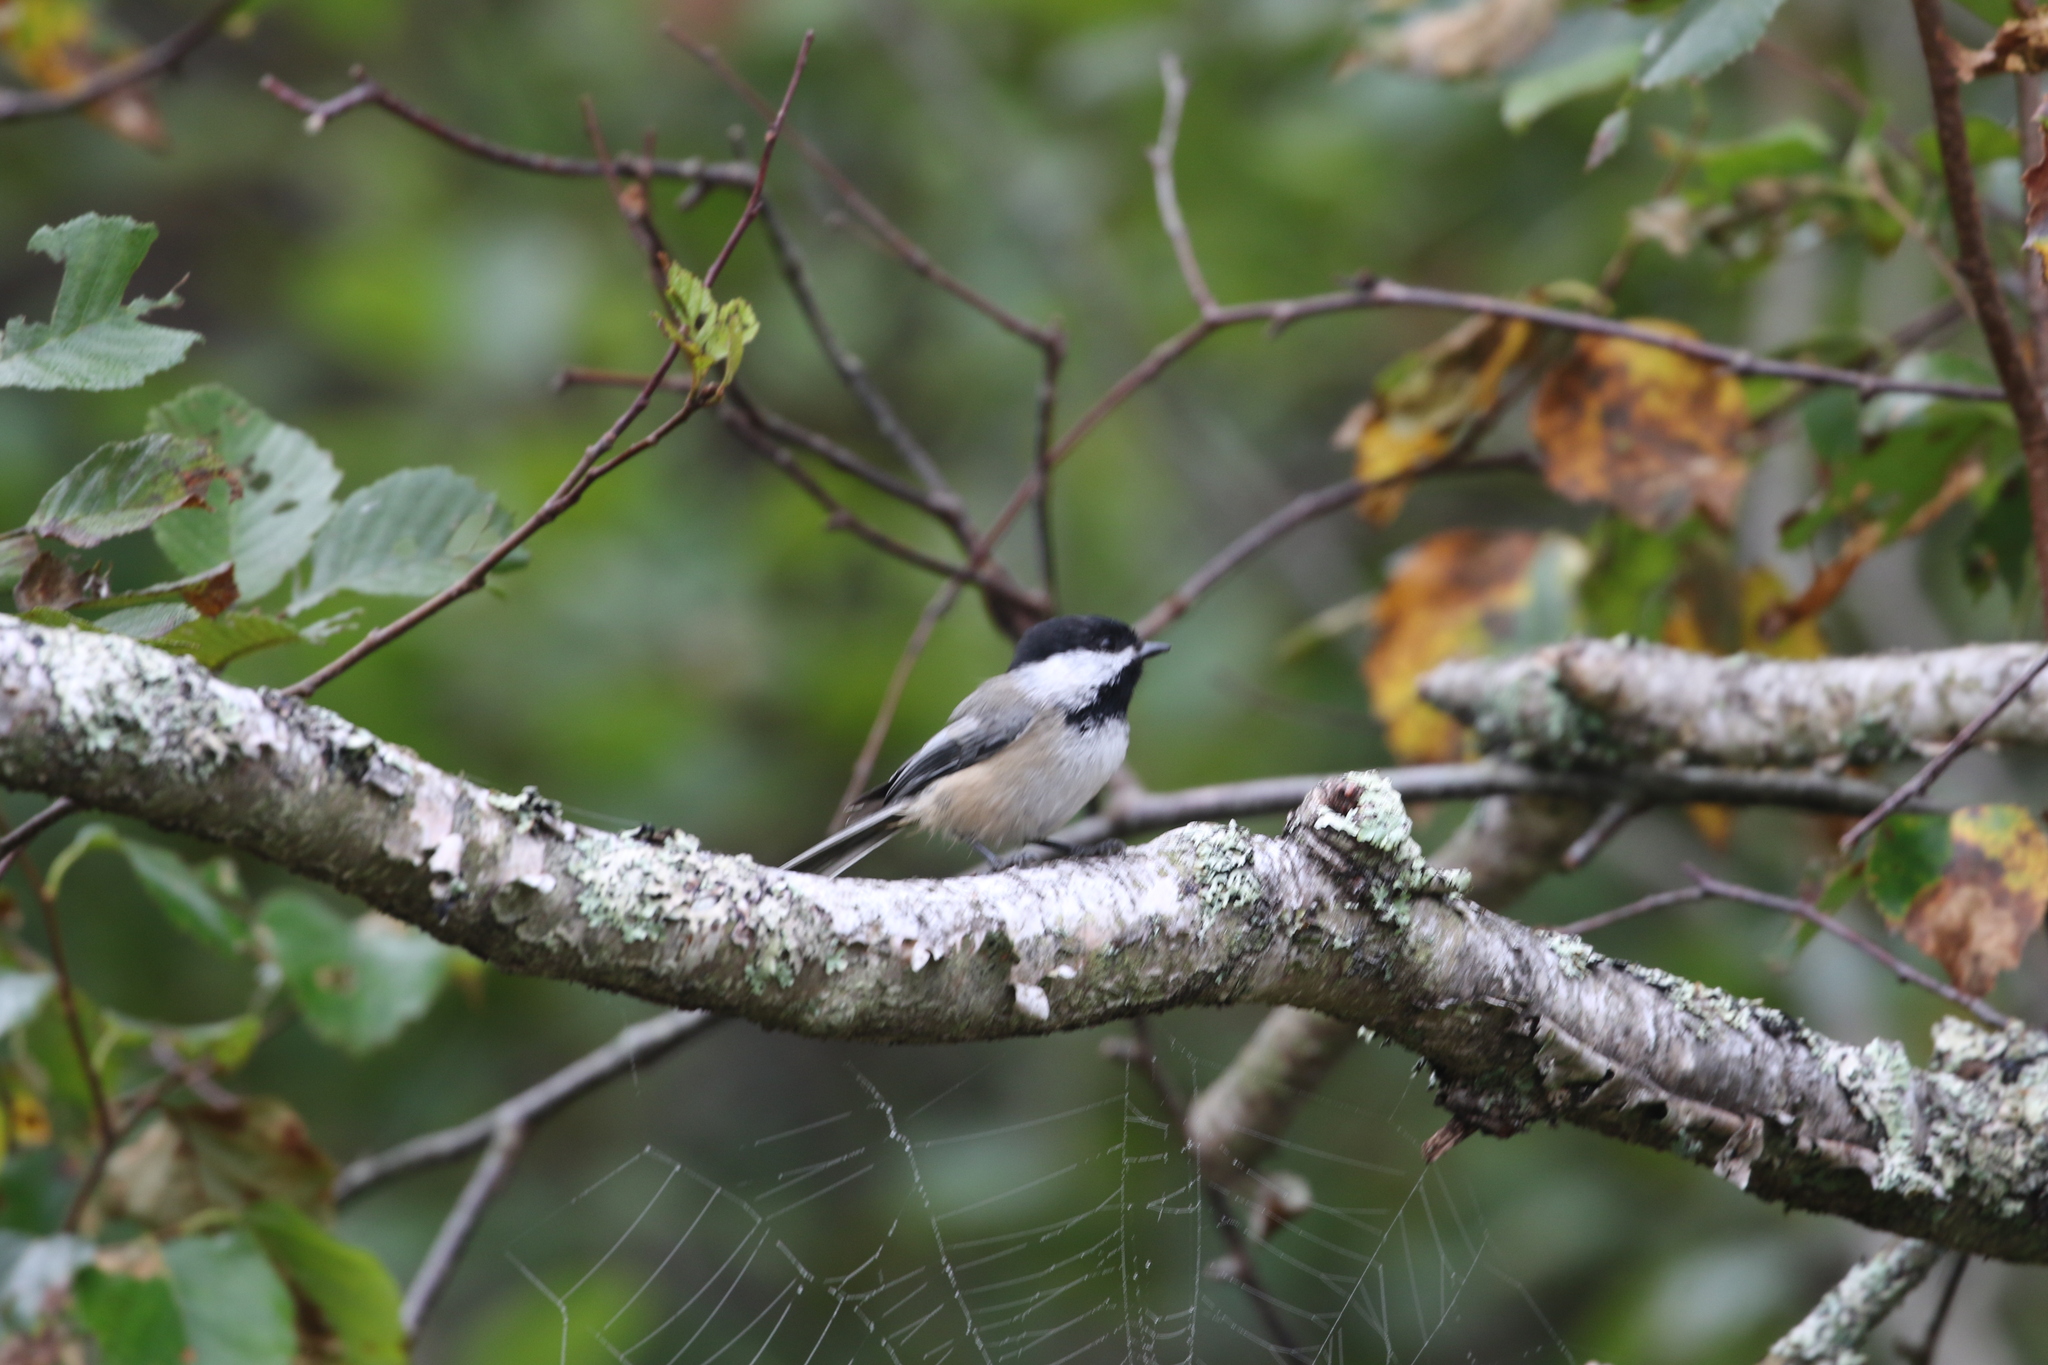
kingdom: Animalia
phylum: Chordata
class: Aves
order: Passeriformes
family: Paridae
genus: Poecile
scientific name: Poecile atricapillus
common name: Black-capped chickadee
